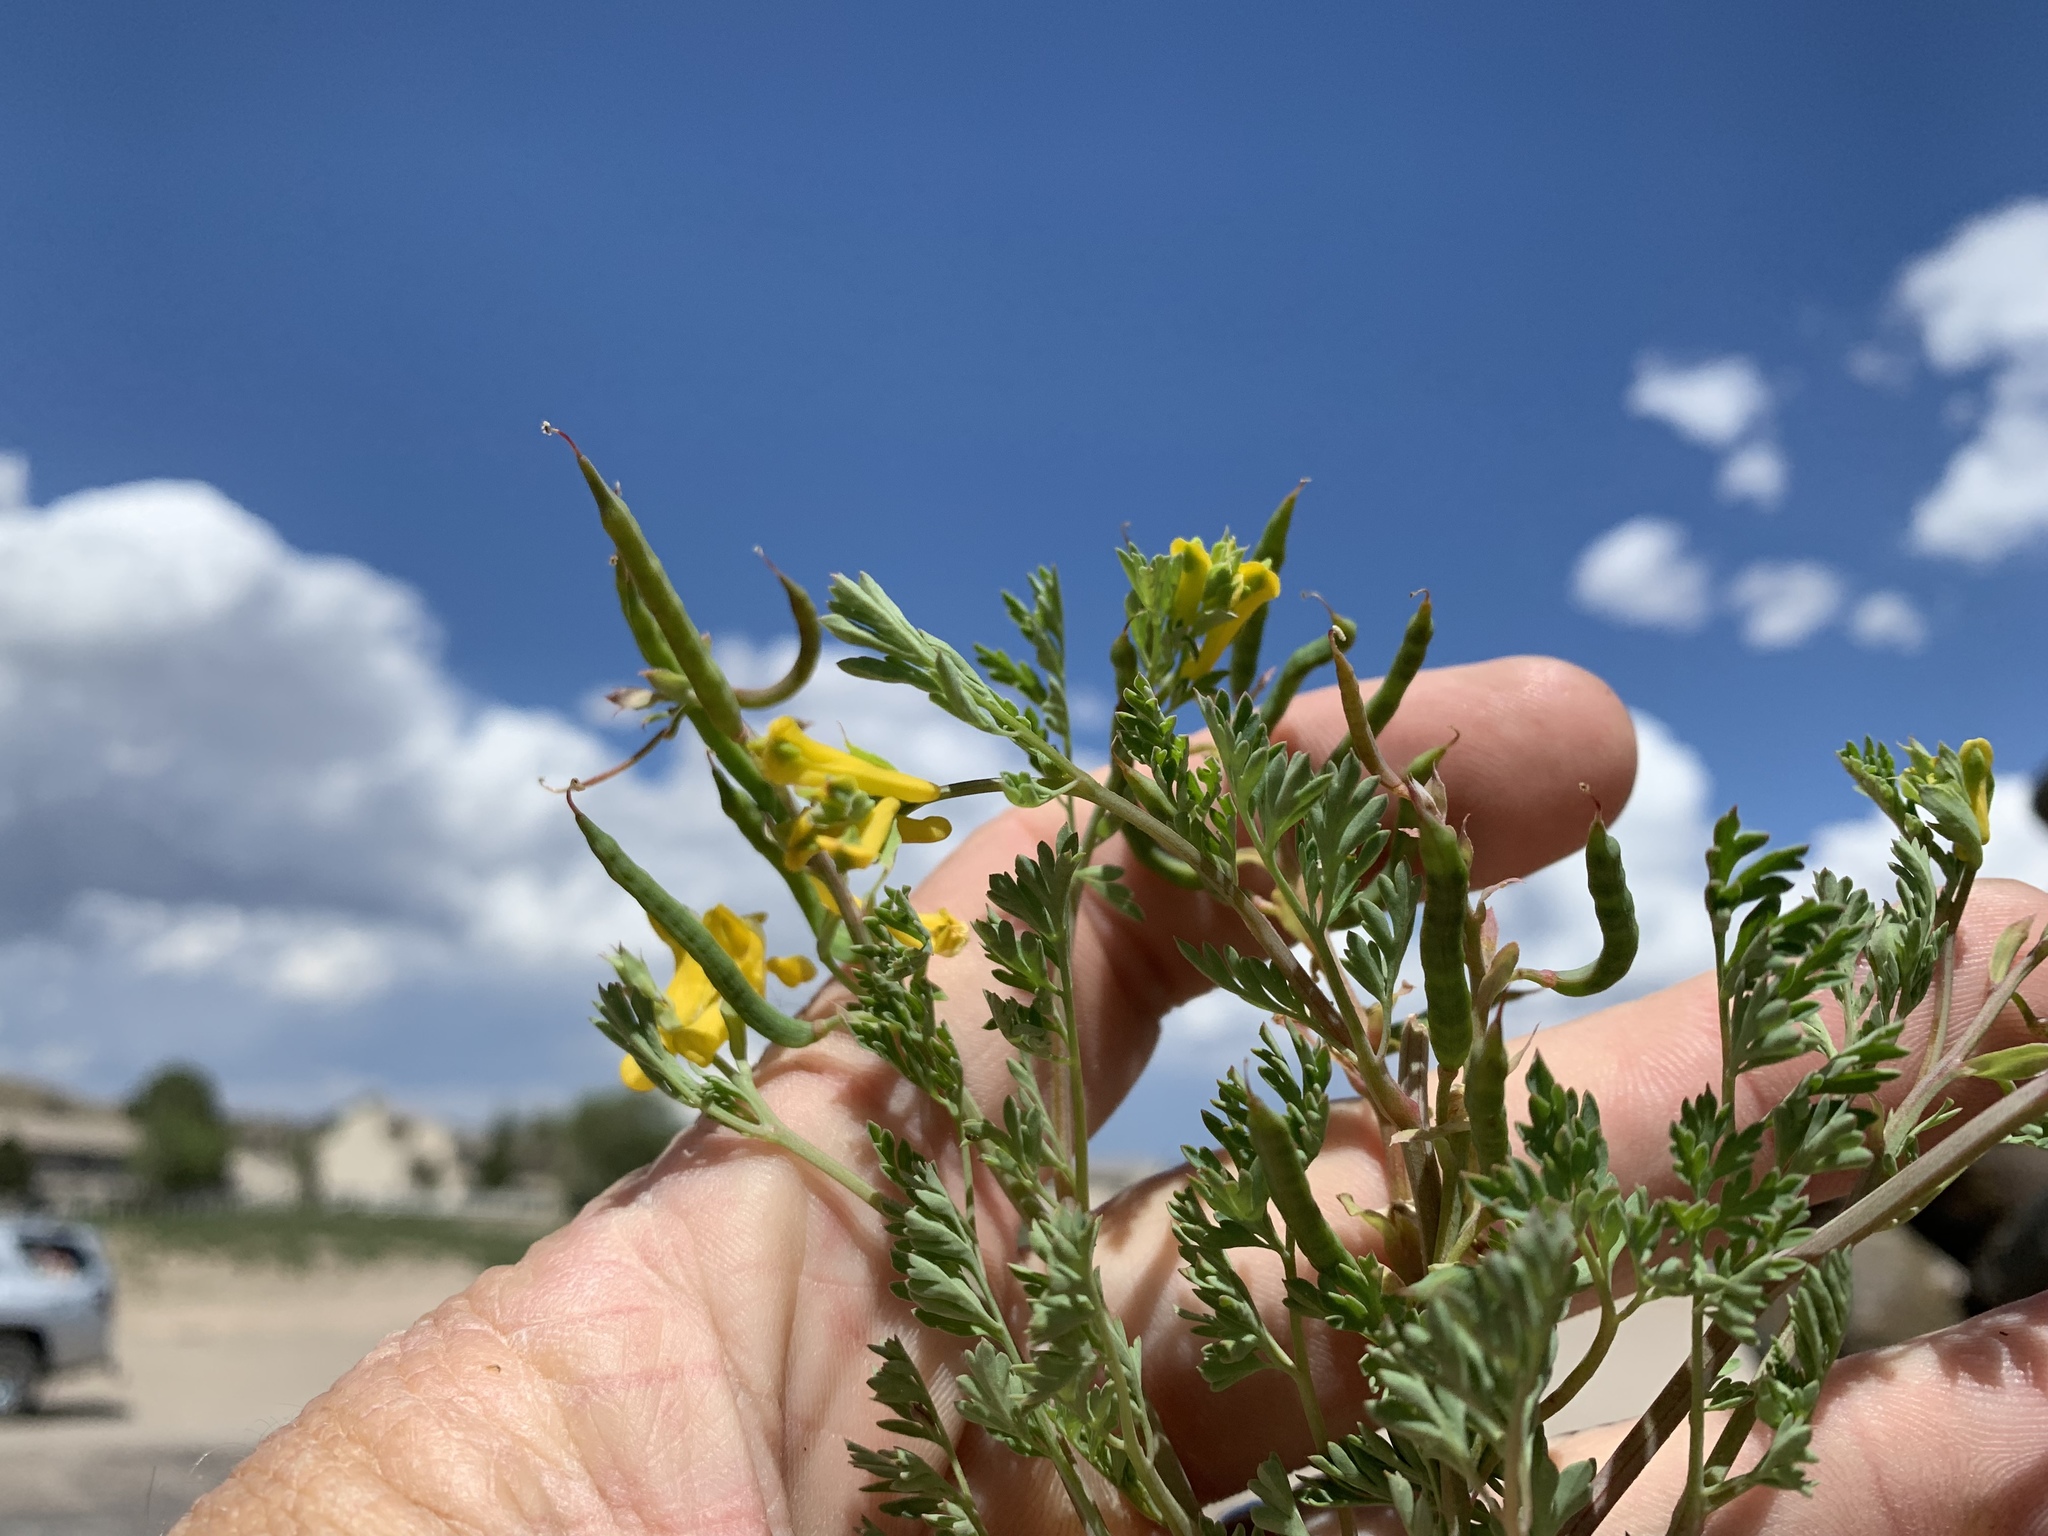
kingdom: Plantae
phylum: Tracheophyta
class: Magnoliopsida
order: Ranunculales
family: Papaveraceae
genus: Corydalis
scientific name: Corydalis aurea
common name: Golden corydalis
